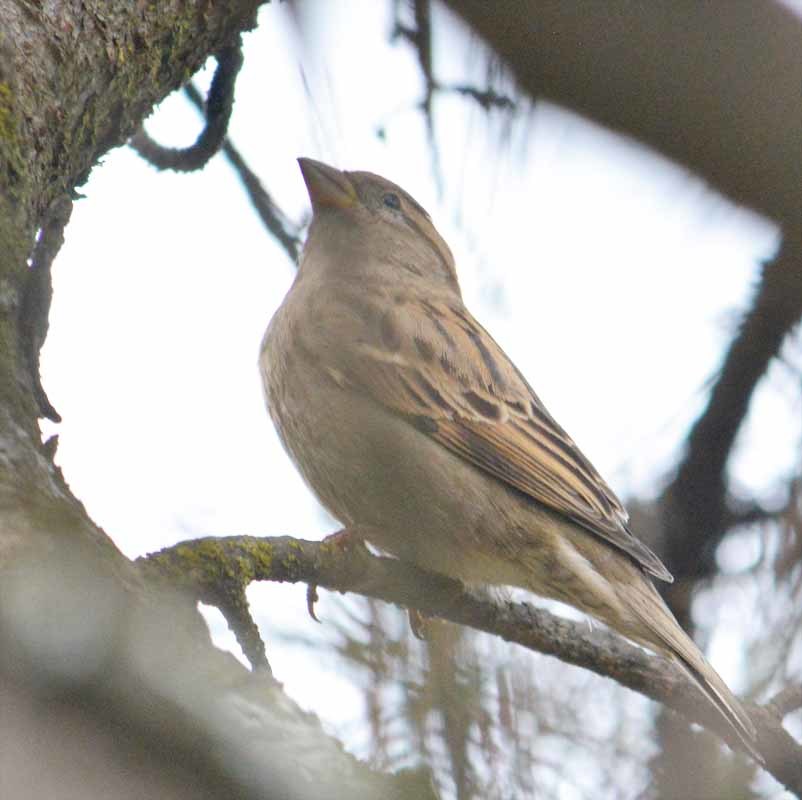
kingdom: Animalia
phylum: Chordata
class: Aves
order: Passeriformes
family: Passeridae
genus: Passer
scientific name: Passer domesticus
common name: House sparrow
